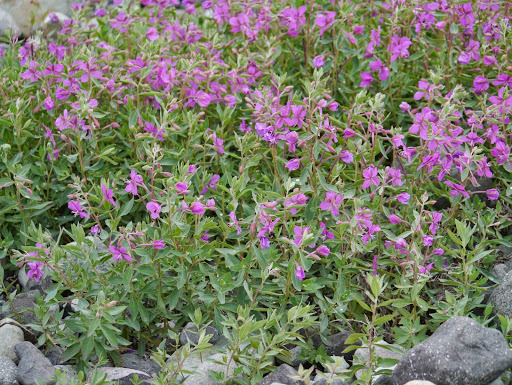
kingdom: Plantae
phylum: Tracheophyta
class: Magnoliopsida
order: Myrtales
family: Onagraceae
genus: Chamaenerion
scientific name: Chamaenerion latifolium
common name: Dwarf fireweed
